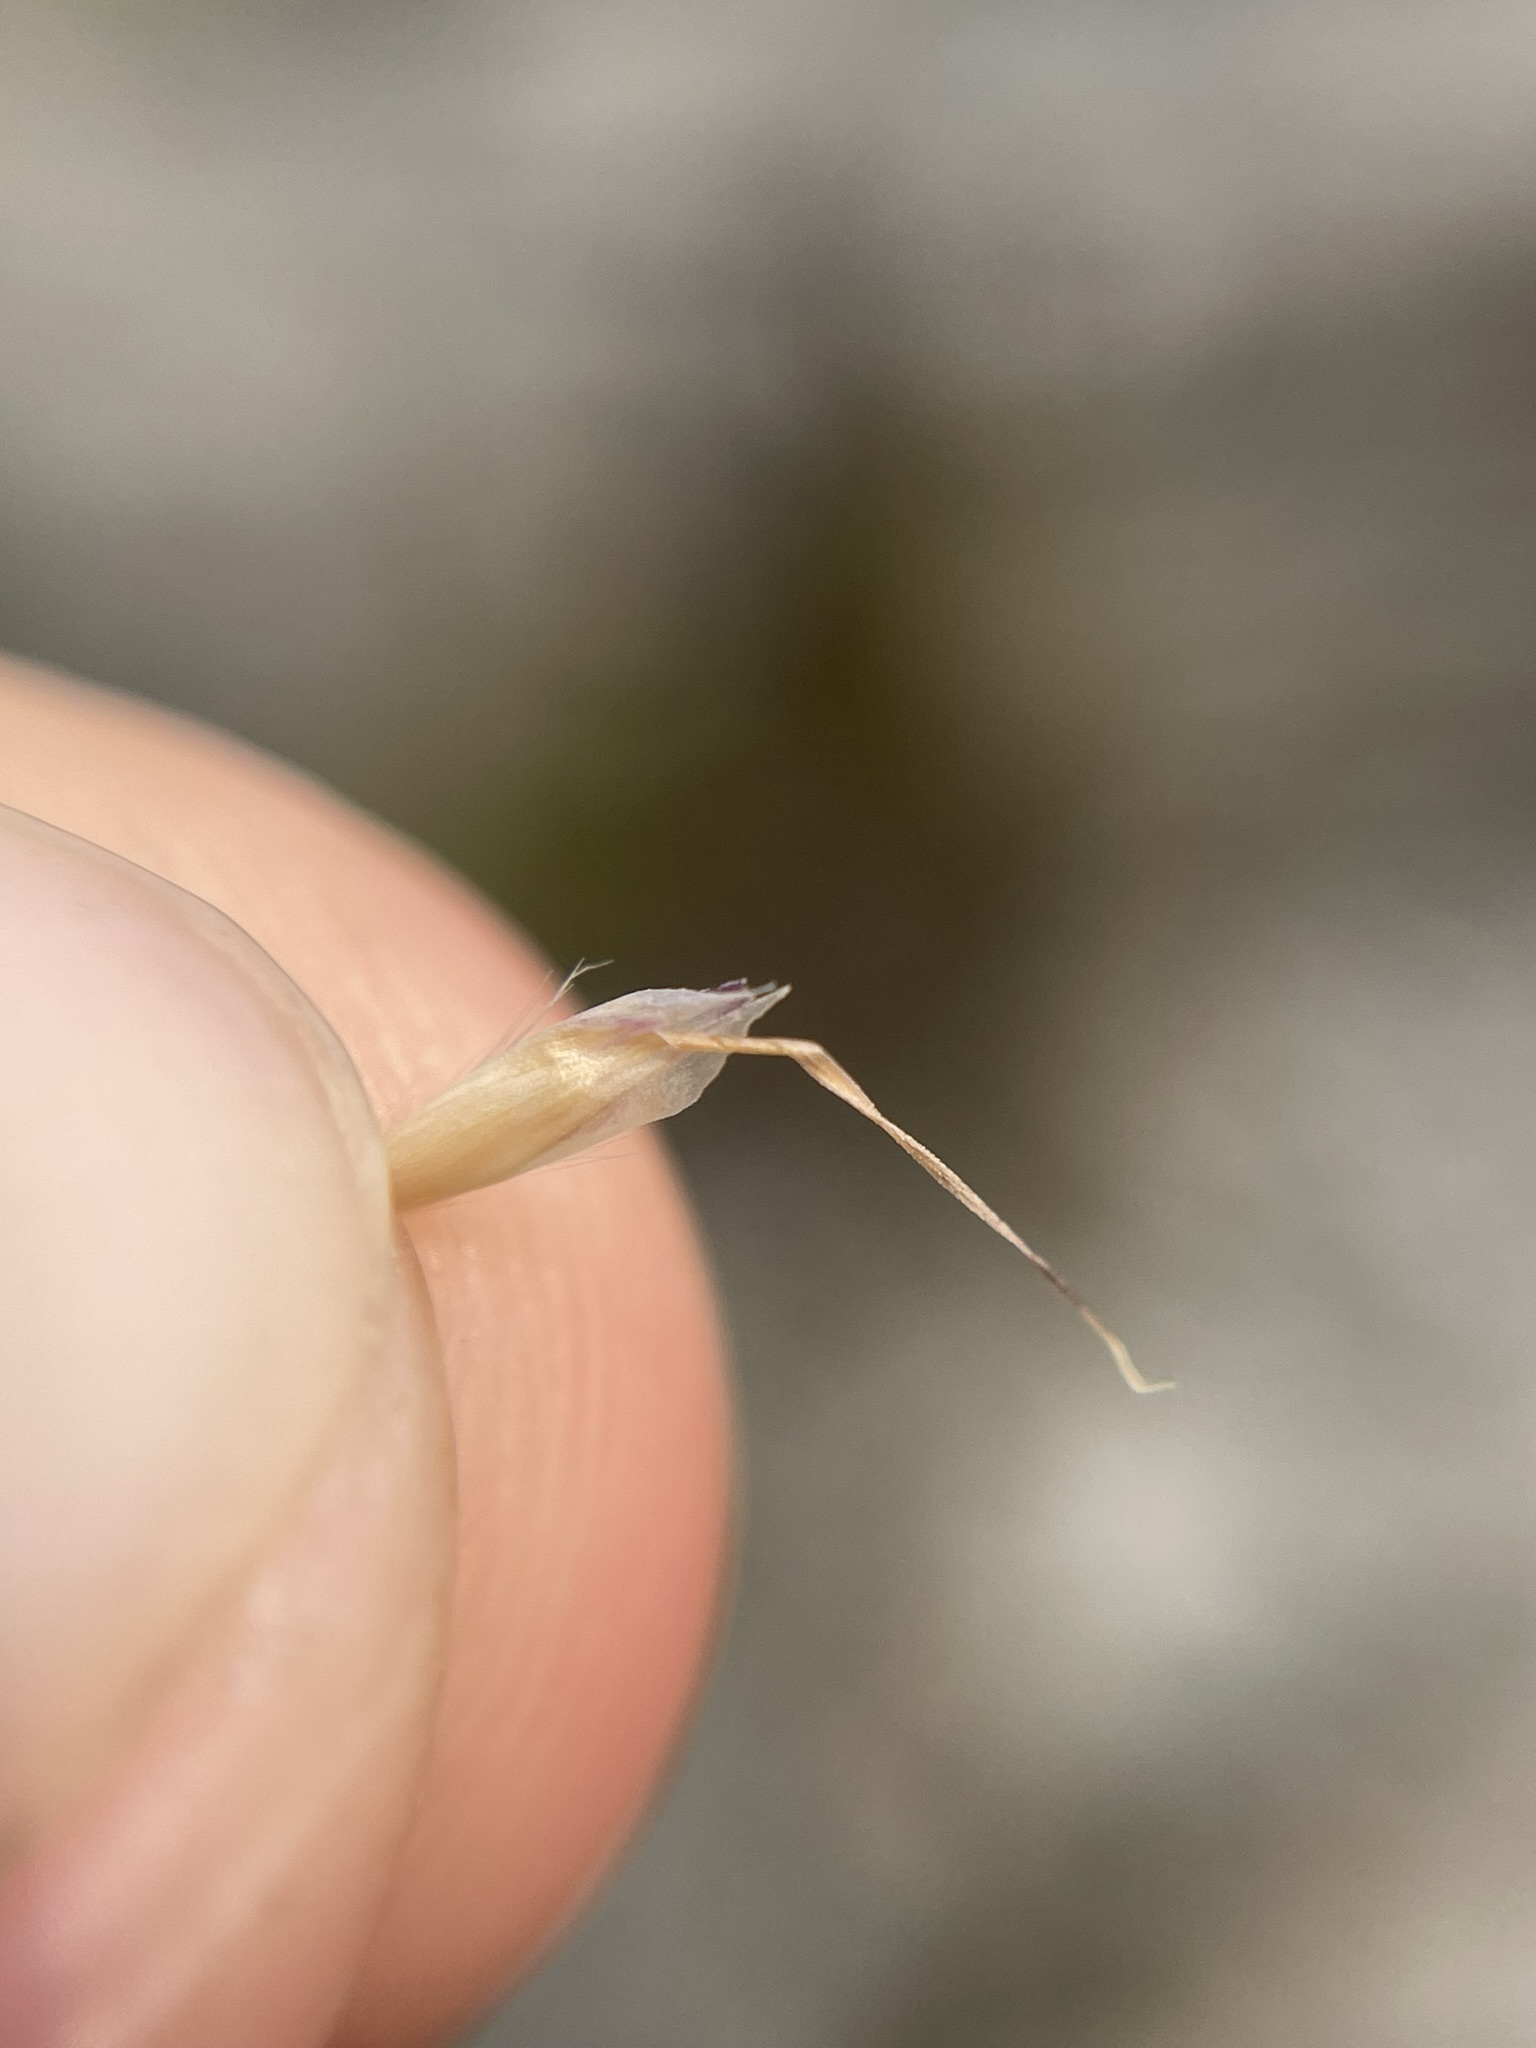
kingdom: Plantae
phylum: Tracheophyta
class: Liliopsida
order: Poales
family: Poaceae
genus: Danthonia
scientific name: Danthonia intermedia
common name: Intermediate oat grass
